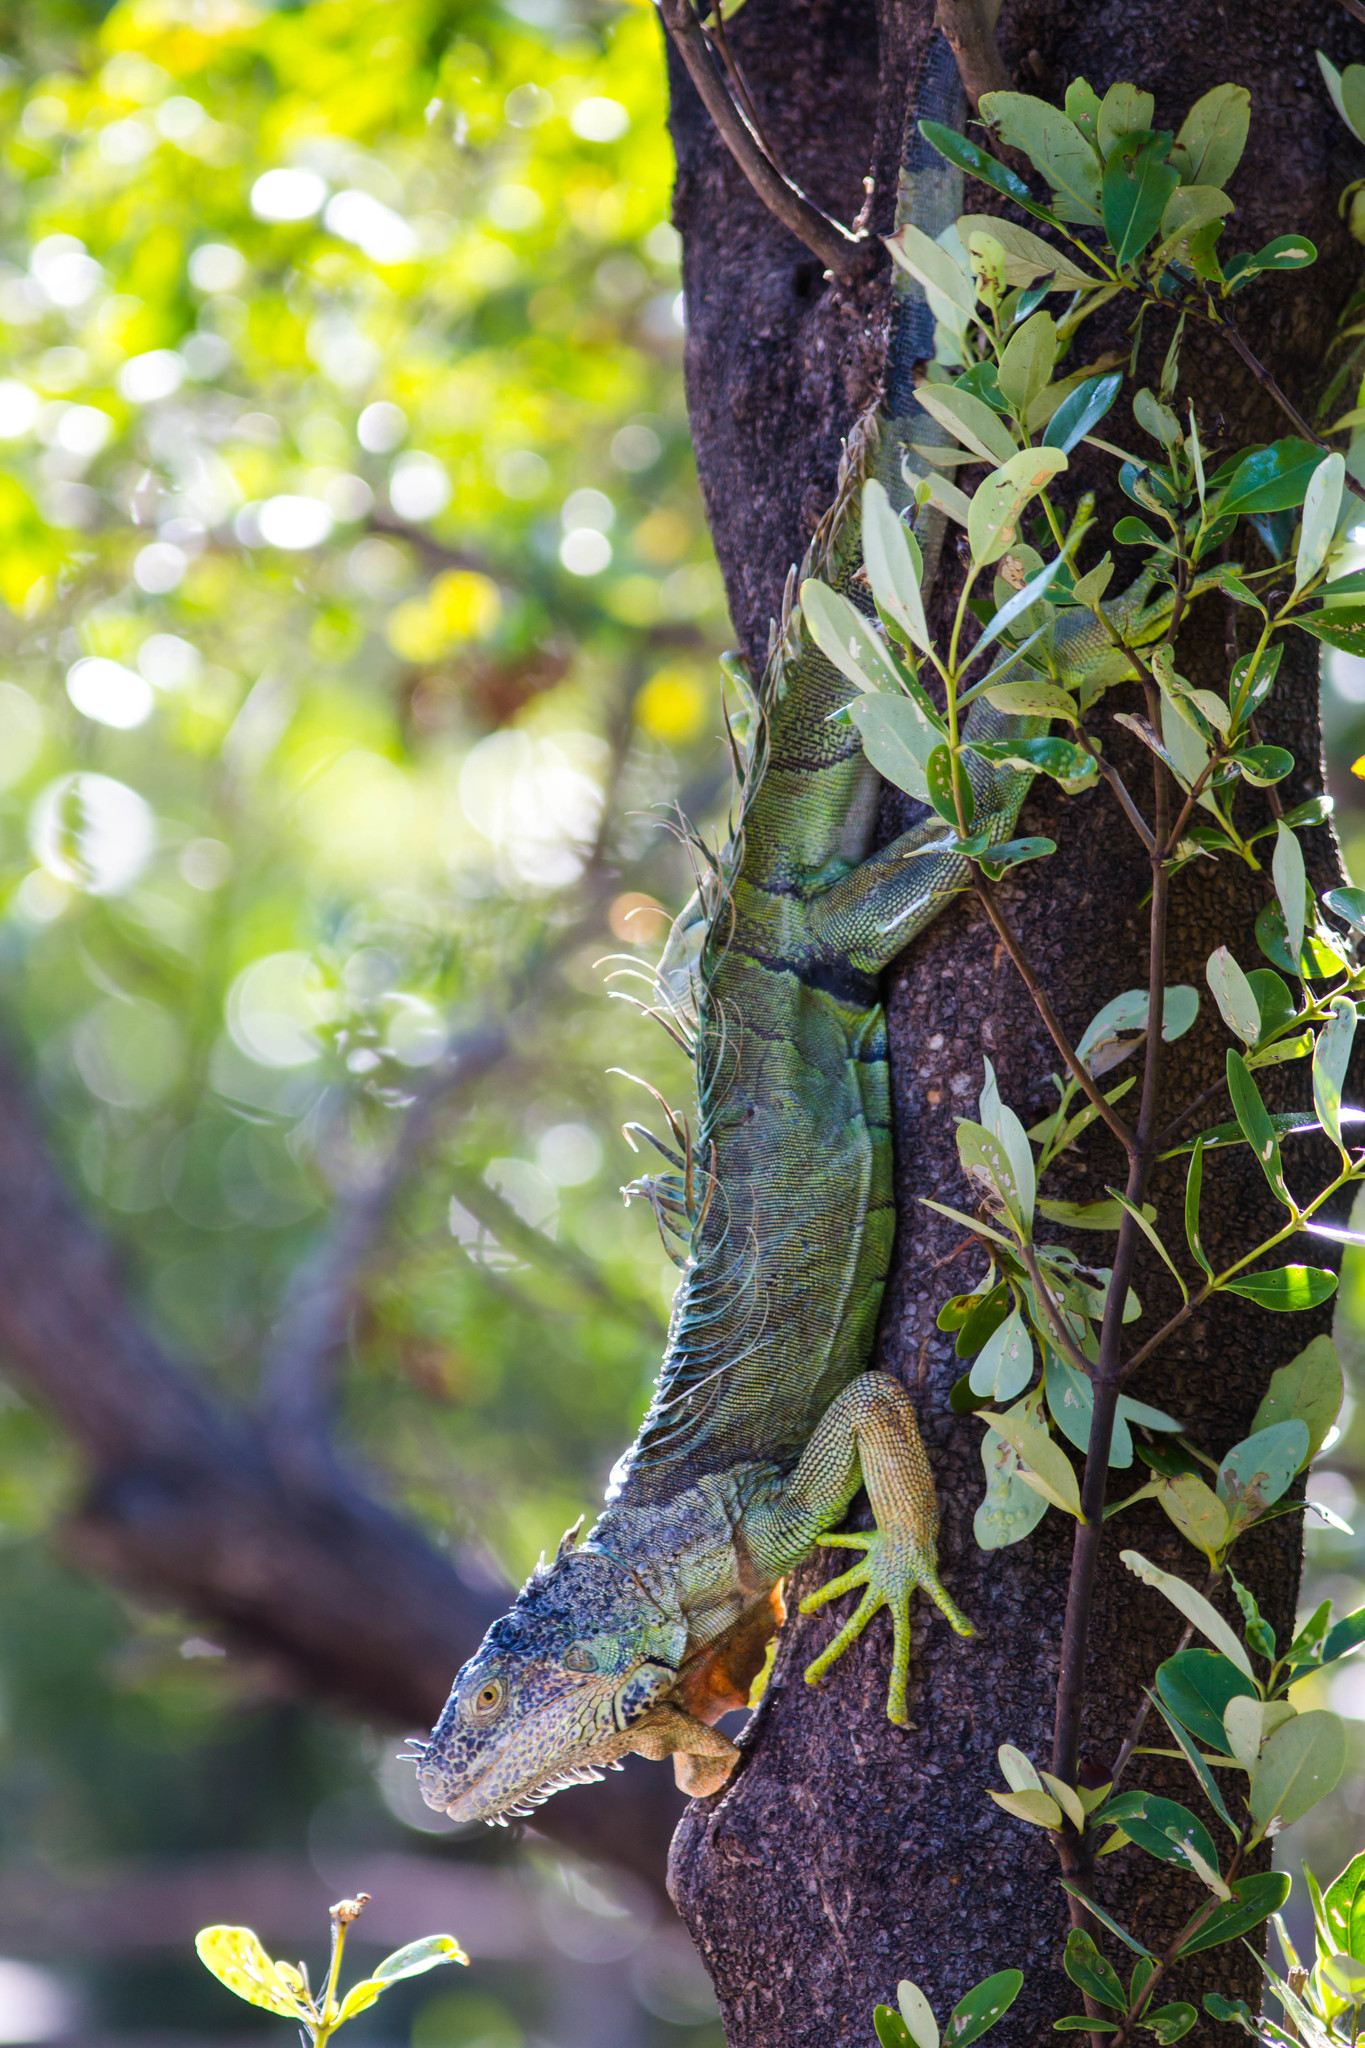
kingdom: Animalia
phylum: Chordata
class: Squamata
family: Iguanidae
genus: Iguana
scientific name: Iguana iguana
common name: Green iguana
